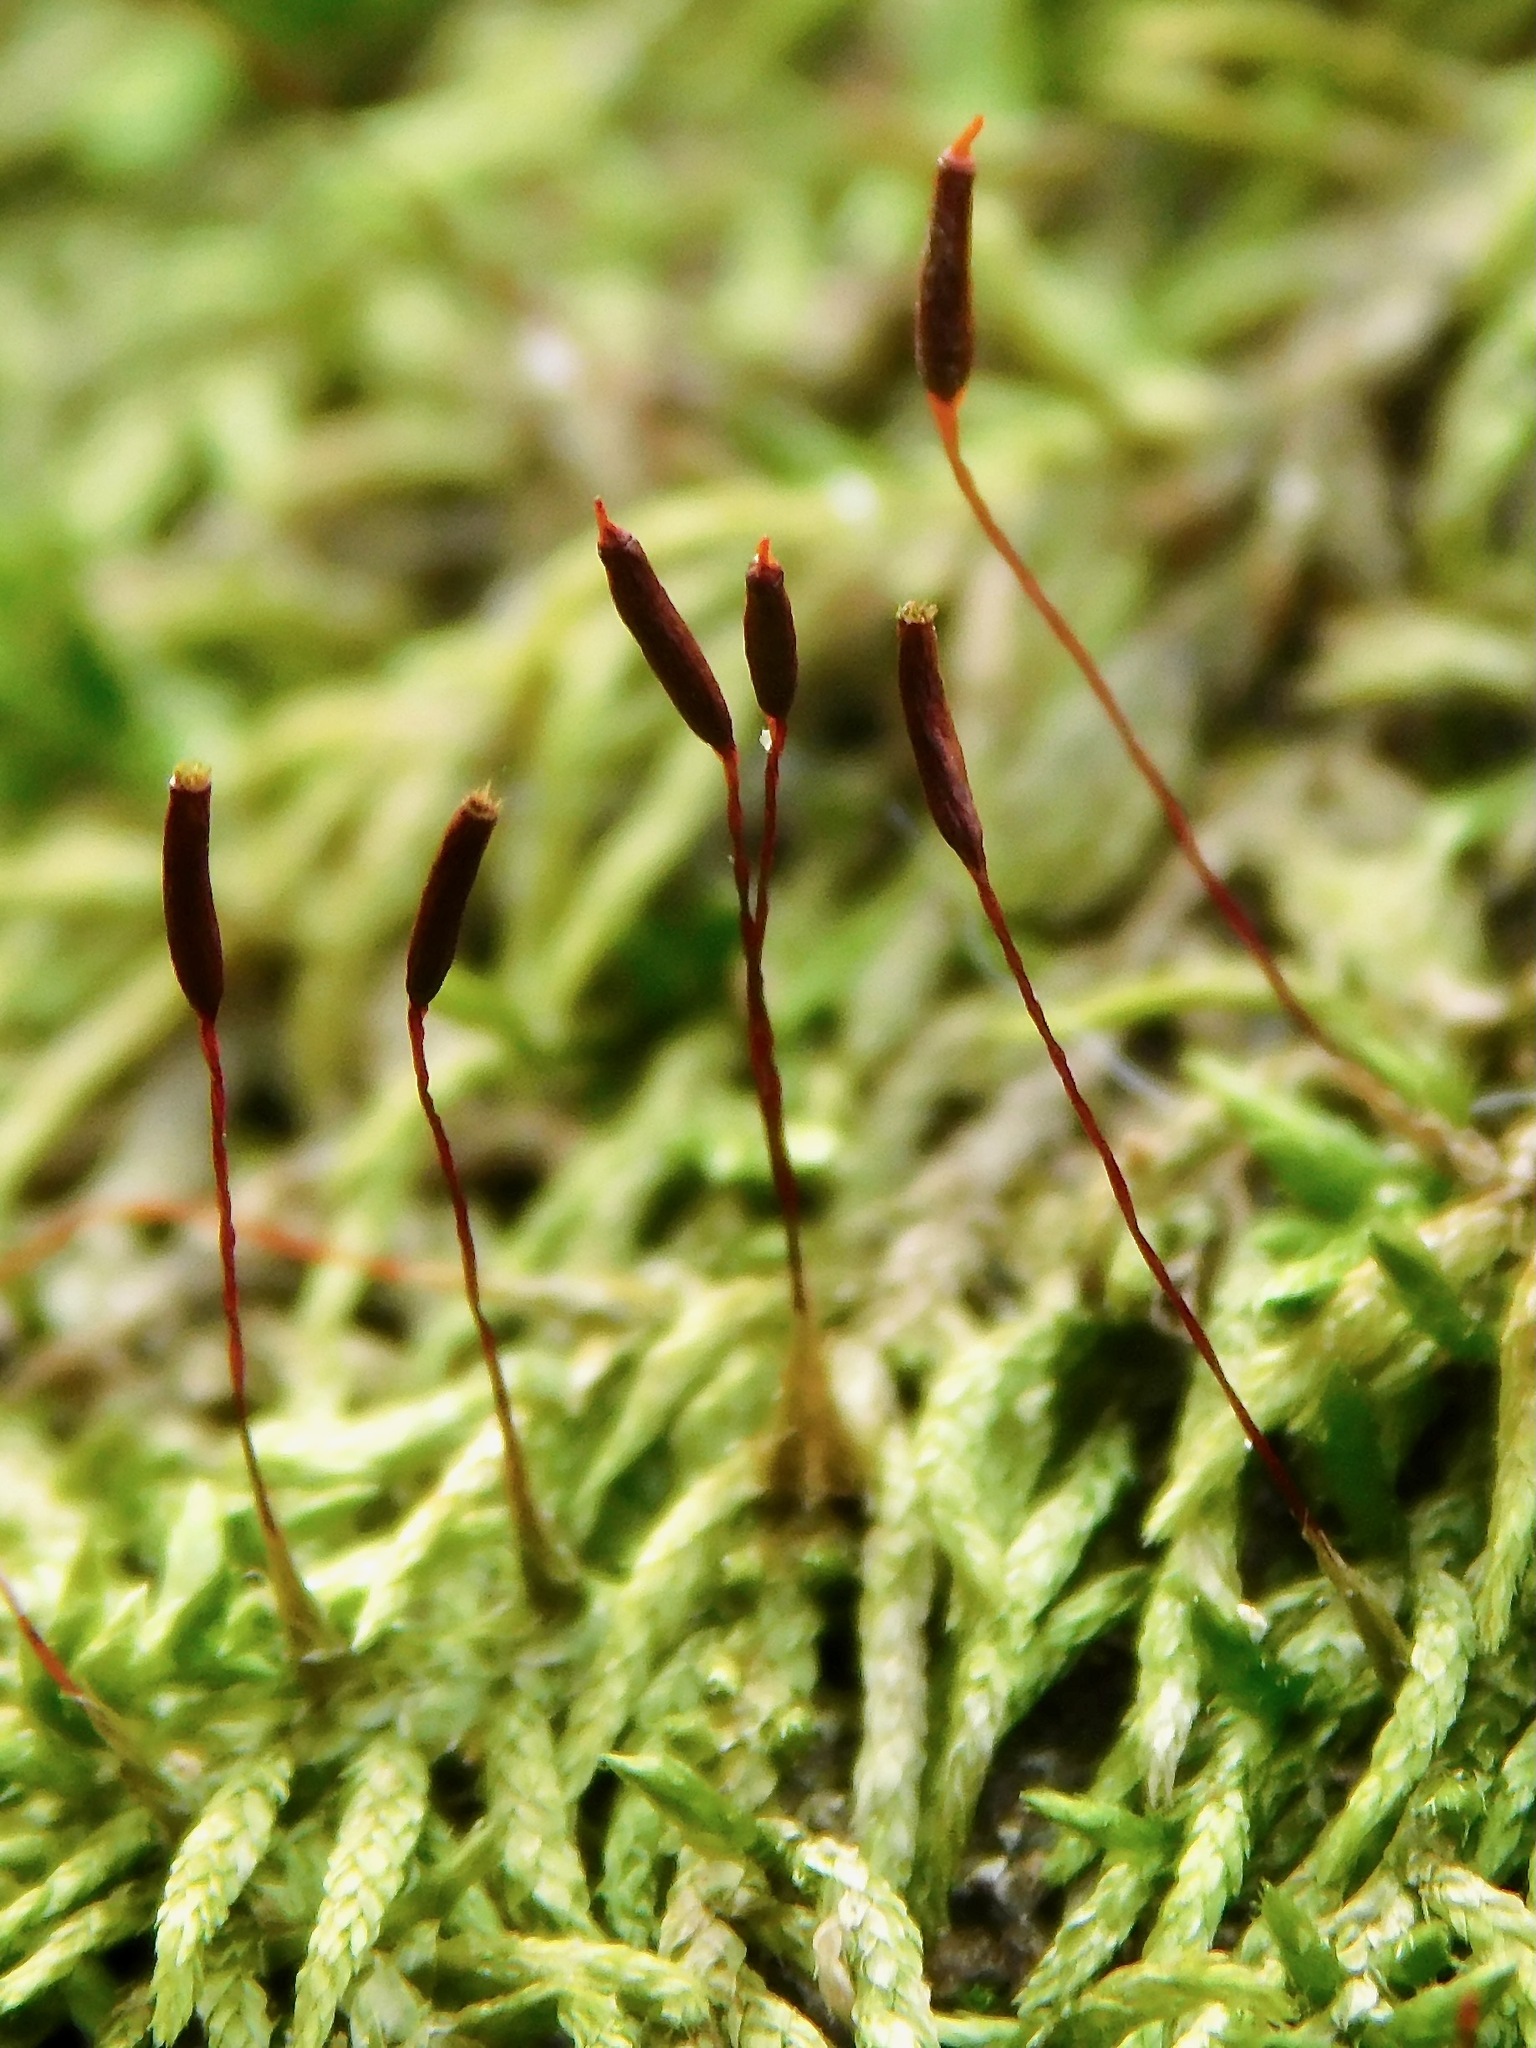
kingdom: Plantae
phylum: Bryophyta
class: Bryopsida
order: Hypnales
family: Taxiphyllaceae
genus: Schwetschkeopsis
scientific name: Schwetschkeopsis fabronia
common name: Rapunzel moss
